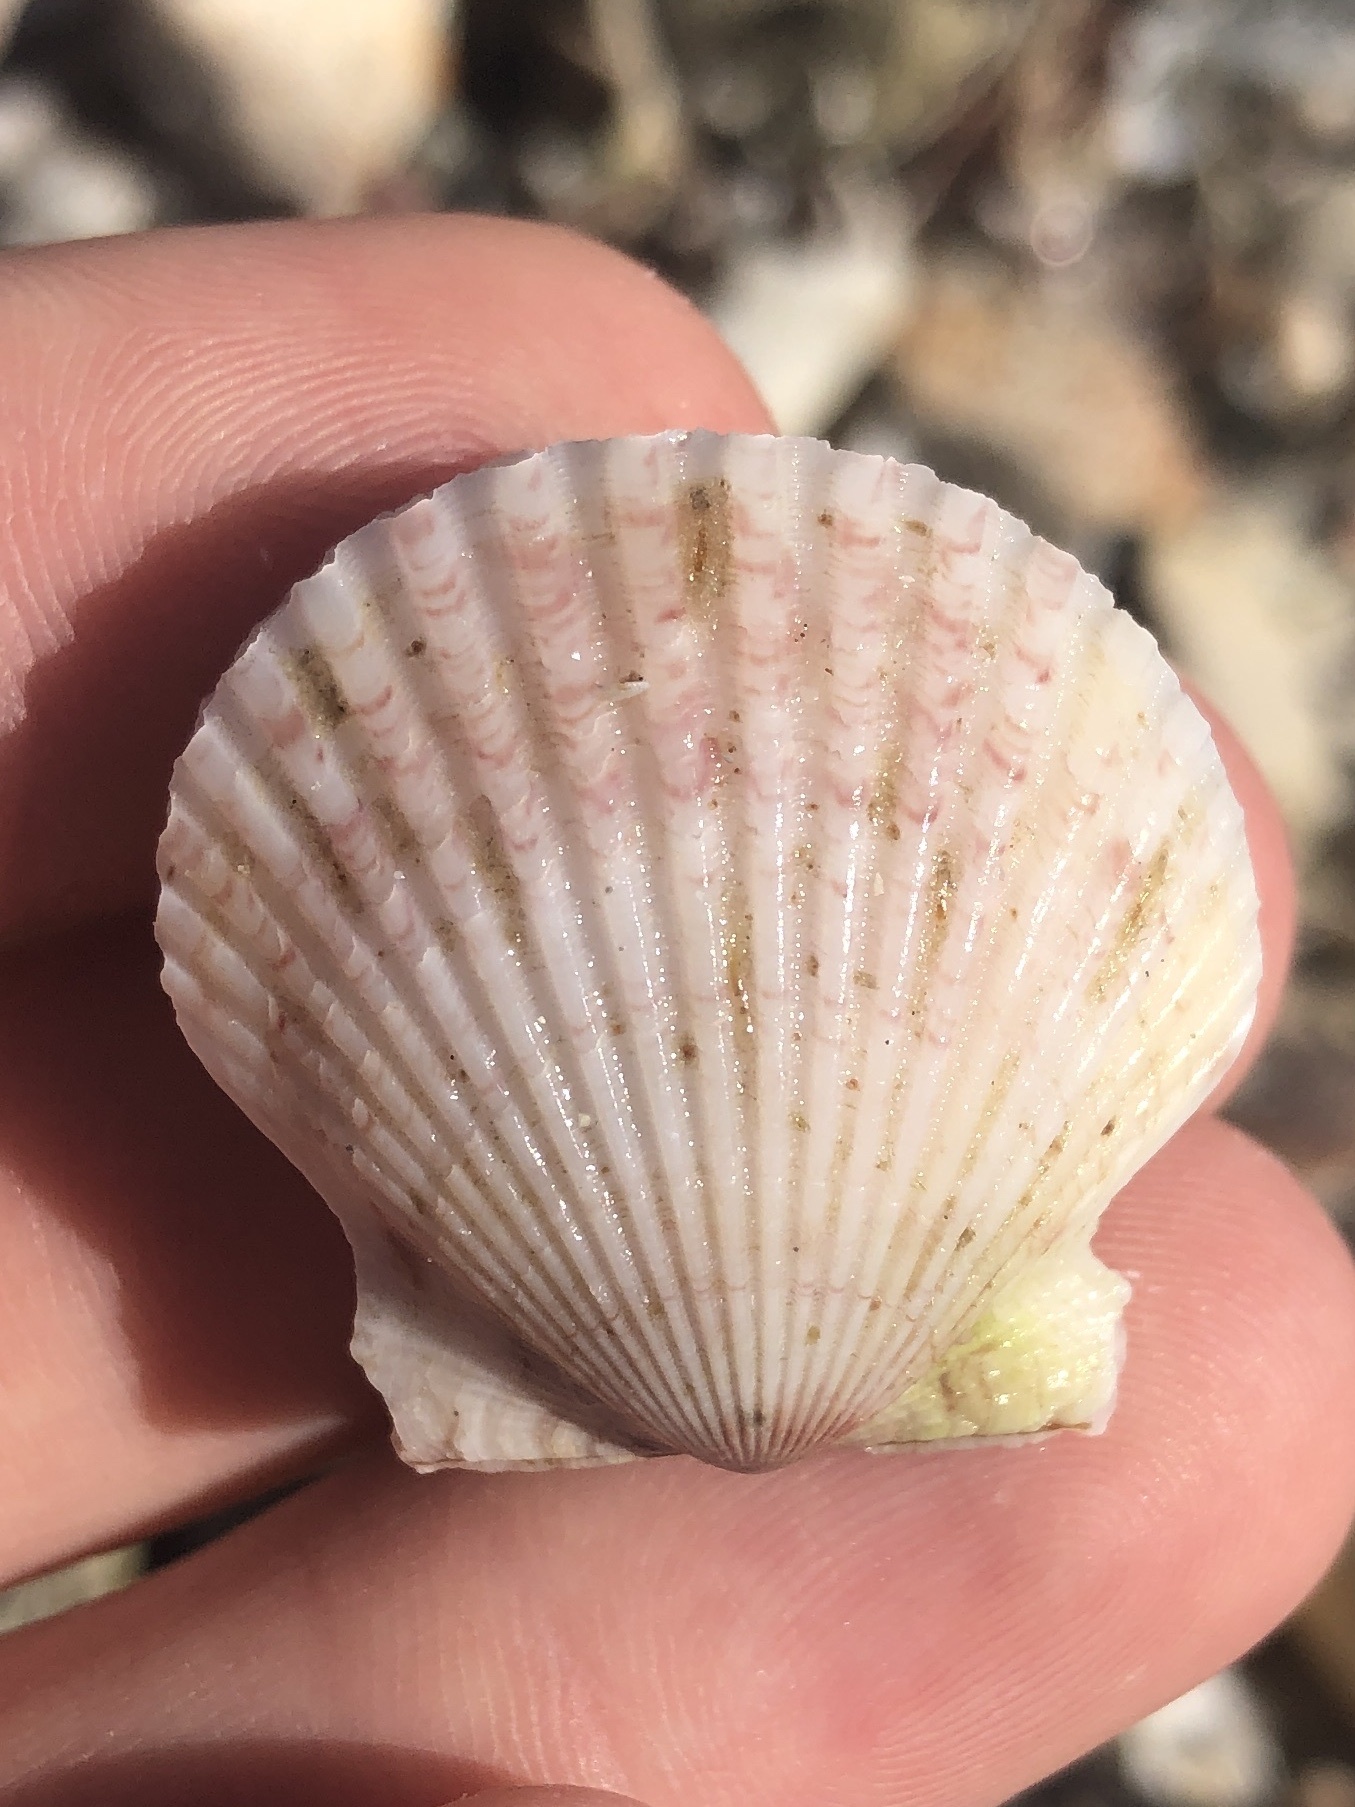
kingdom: Animalia
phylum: Mollusca
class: Bivalvia
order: Pectinida
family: Pectinidae
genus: Argopecten
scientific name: Argopecten gibbus
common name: Atlantic calico scallop
